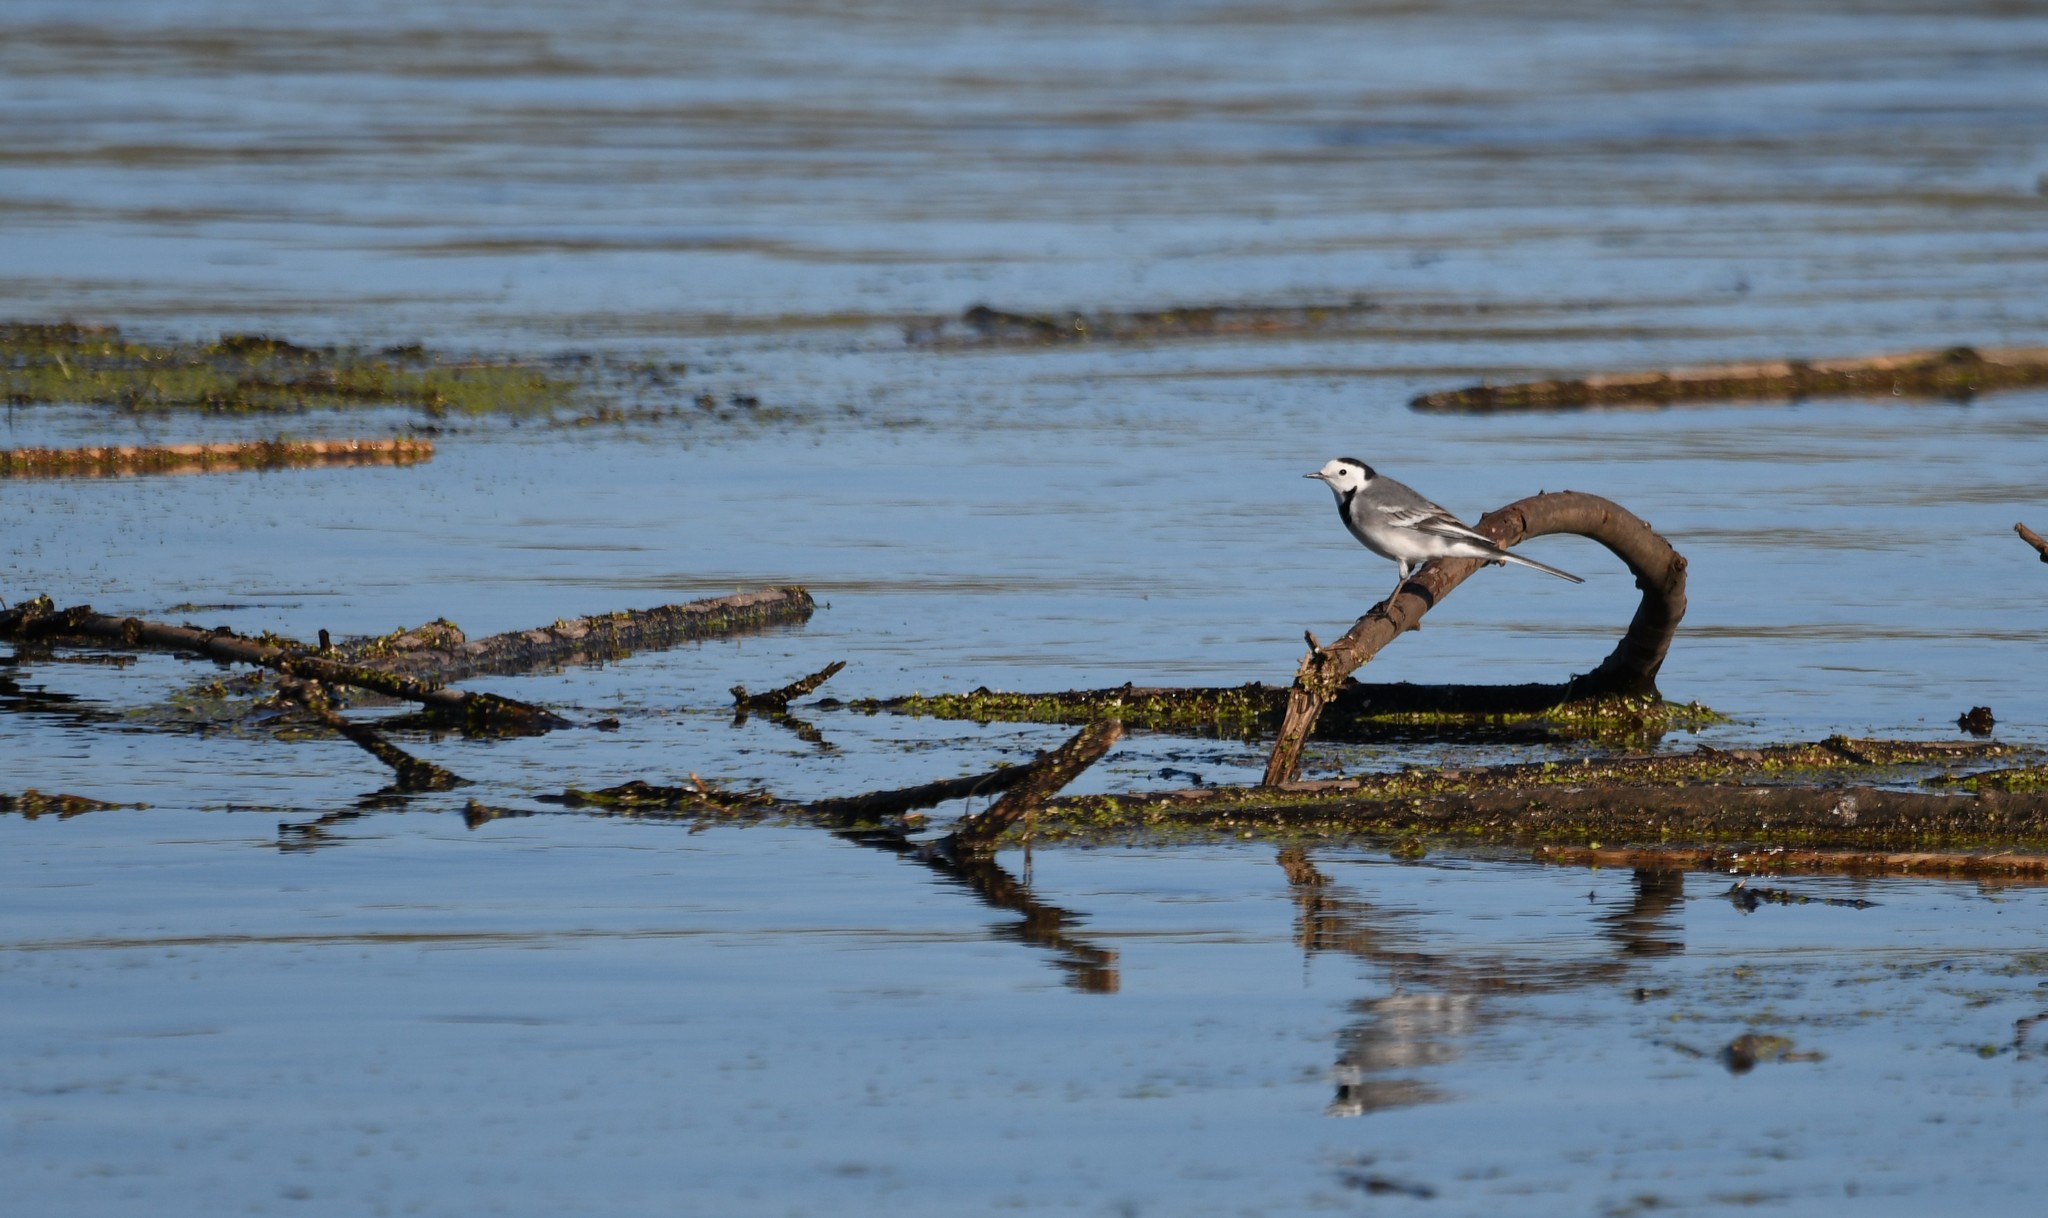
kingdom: Animalia
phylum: Chordata
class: Aves
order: Passeriformes
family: Motacillidae
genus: Motacilla
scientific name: Motacilla alba
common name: White wagtail
